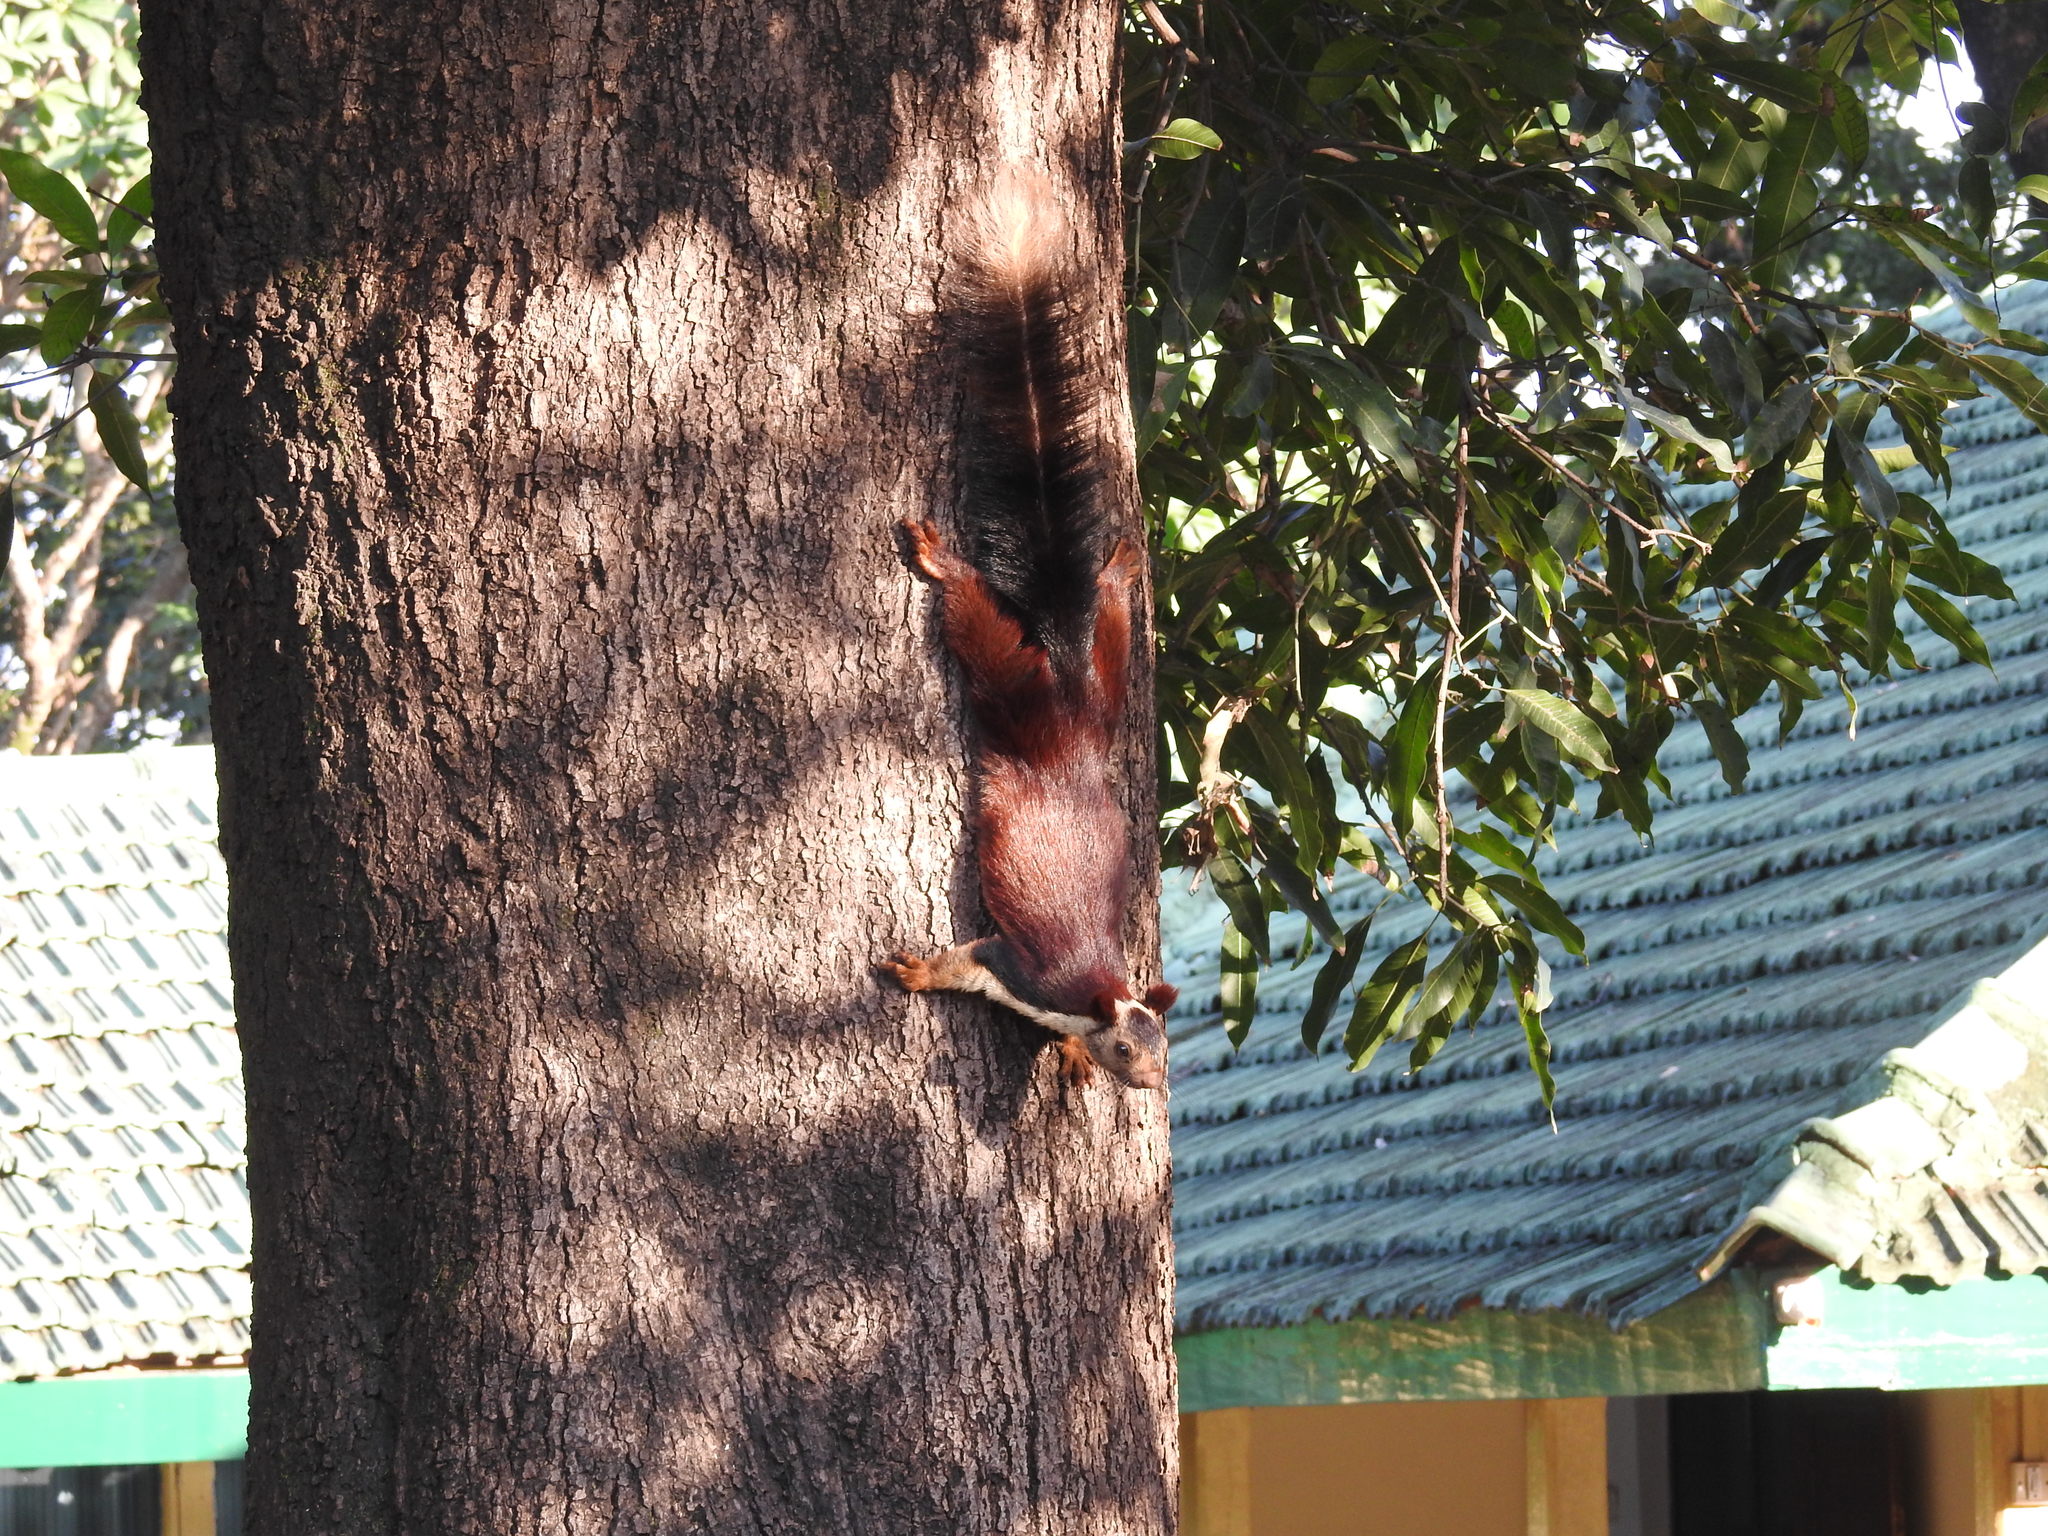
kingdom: Animalia
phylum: Chordata
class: Mammalia
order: Rodentia
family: Sciuridae
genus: Ratufa
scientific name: Ratufa indica
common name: Indian giant squirrel
